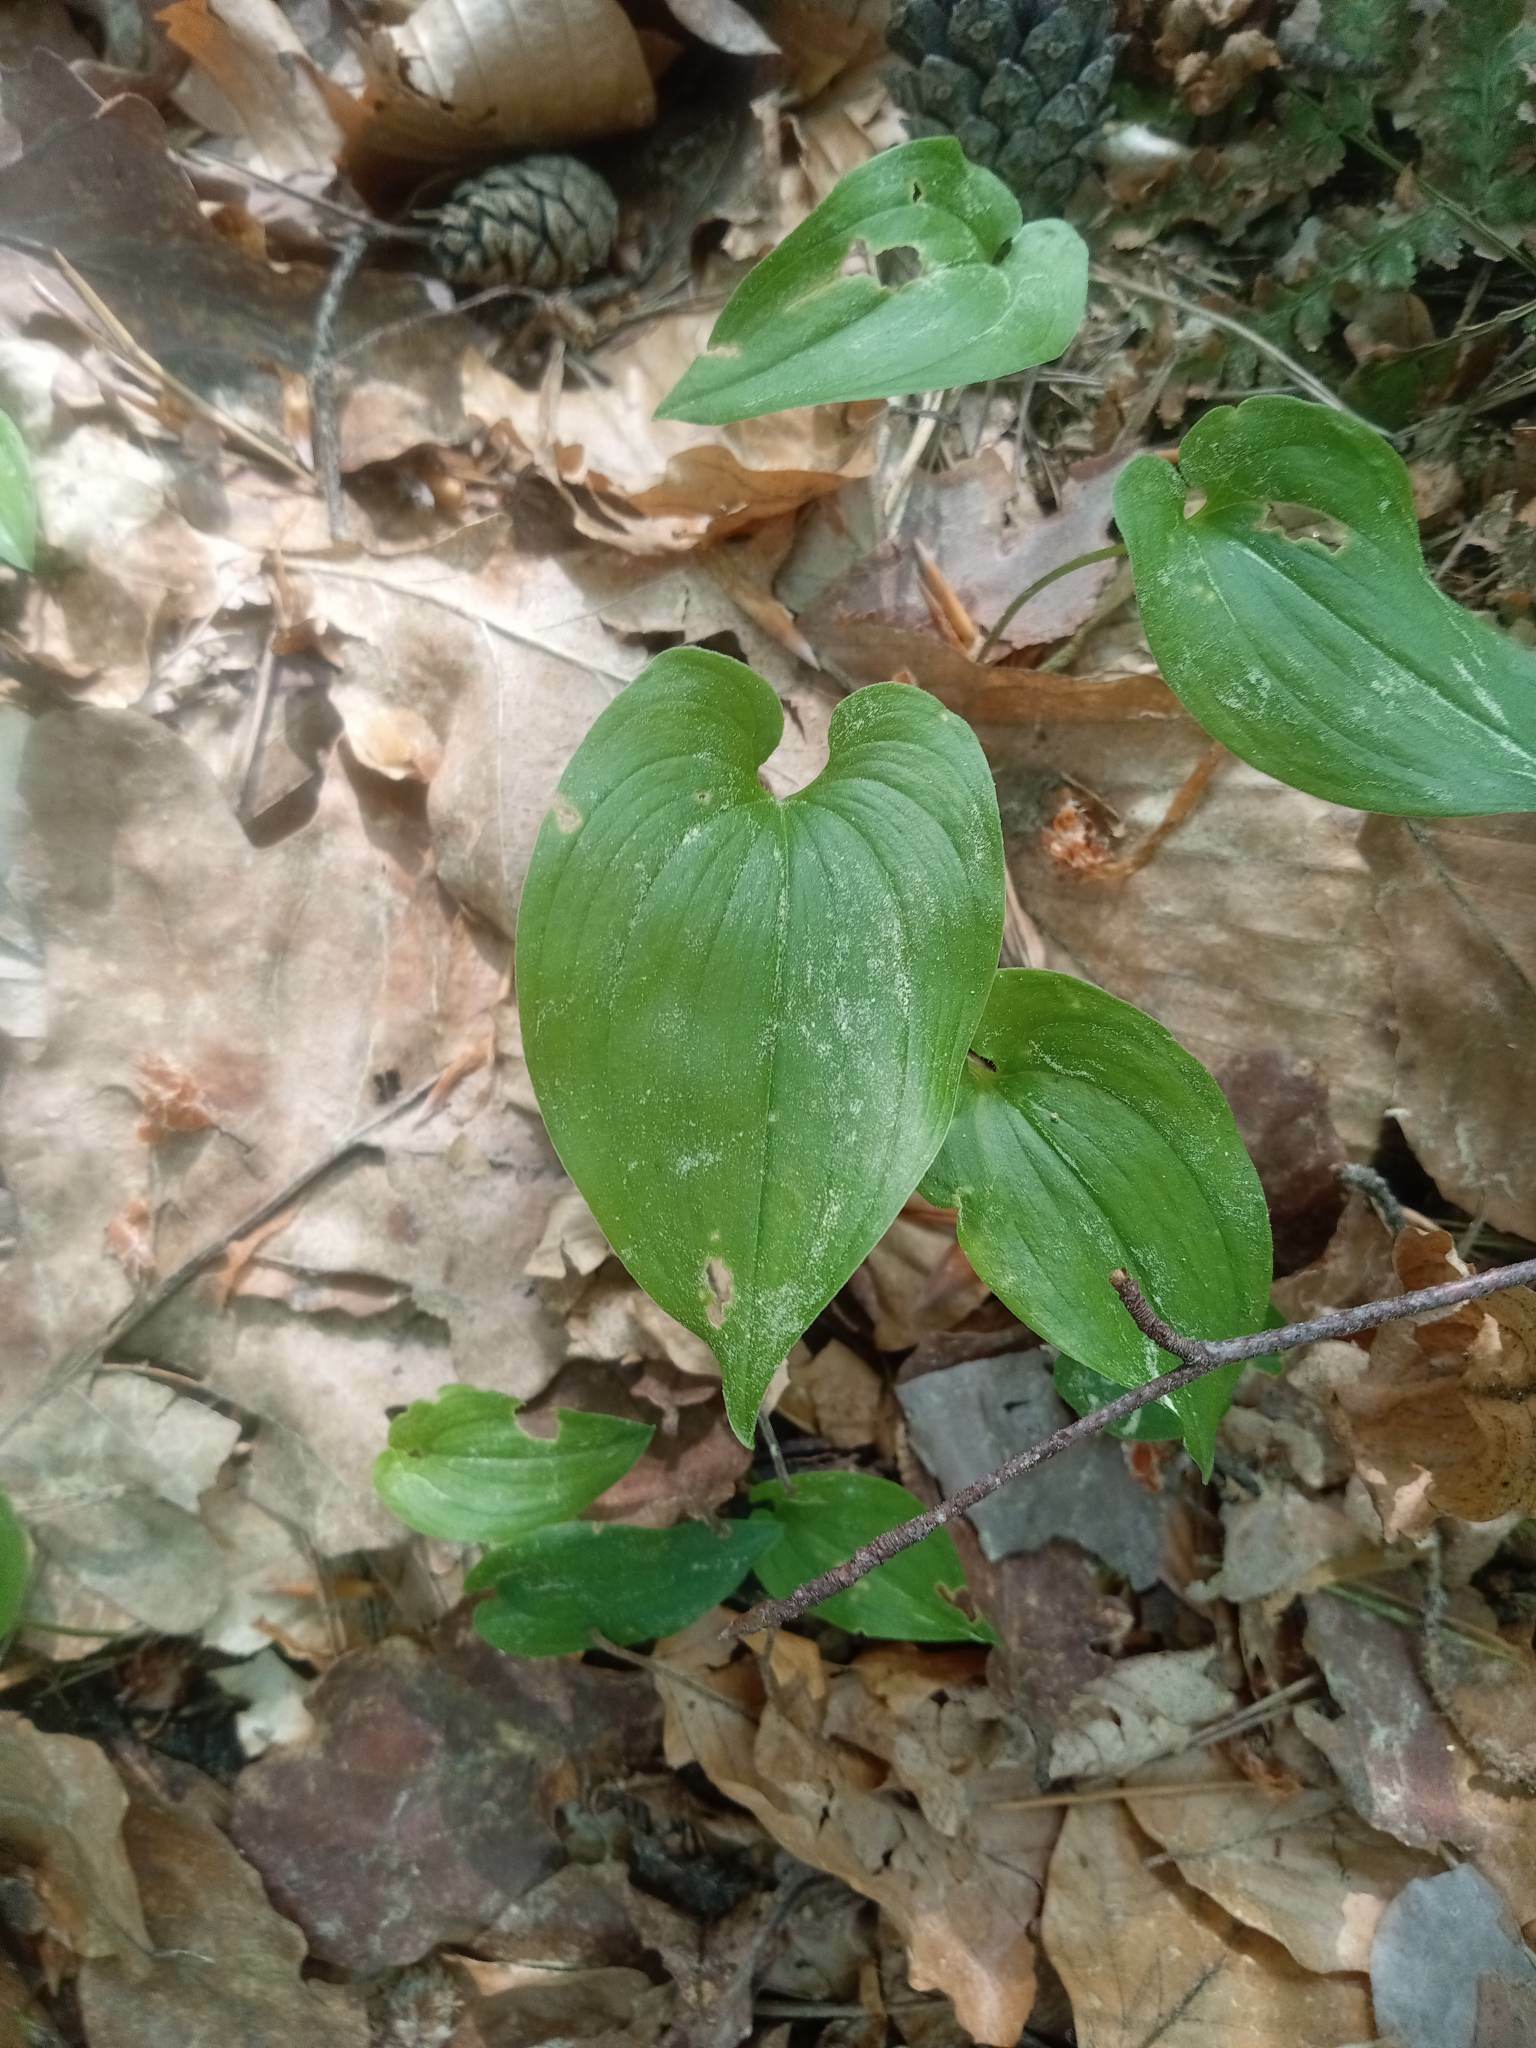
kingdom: Plantae
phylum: Tracheophyta
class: Liliopsida
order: Asparagales
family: Asparagaceae
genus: Maianthemum
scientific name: Maianthemum bifolium
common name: May lily
